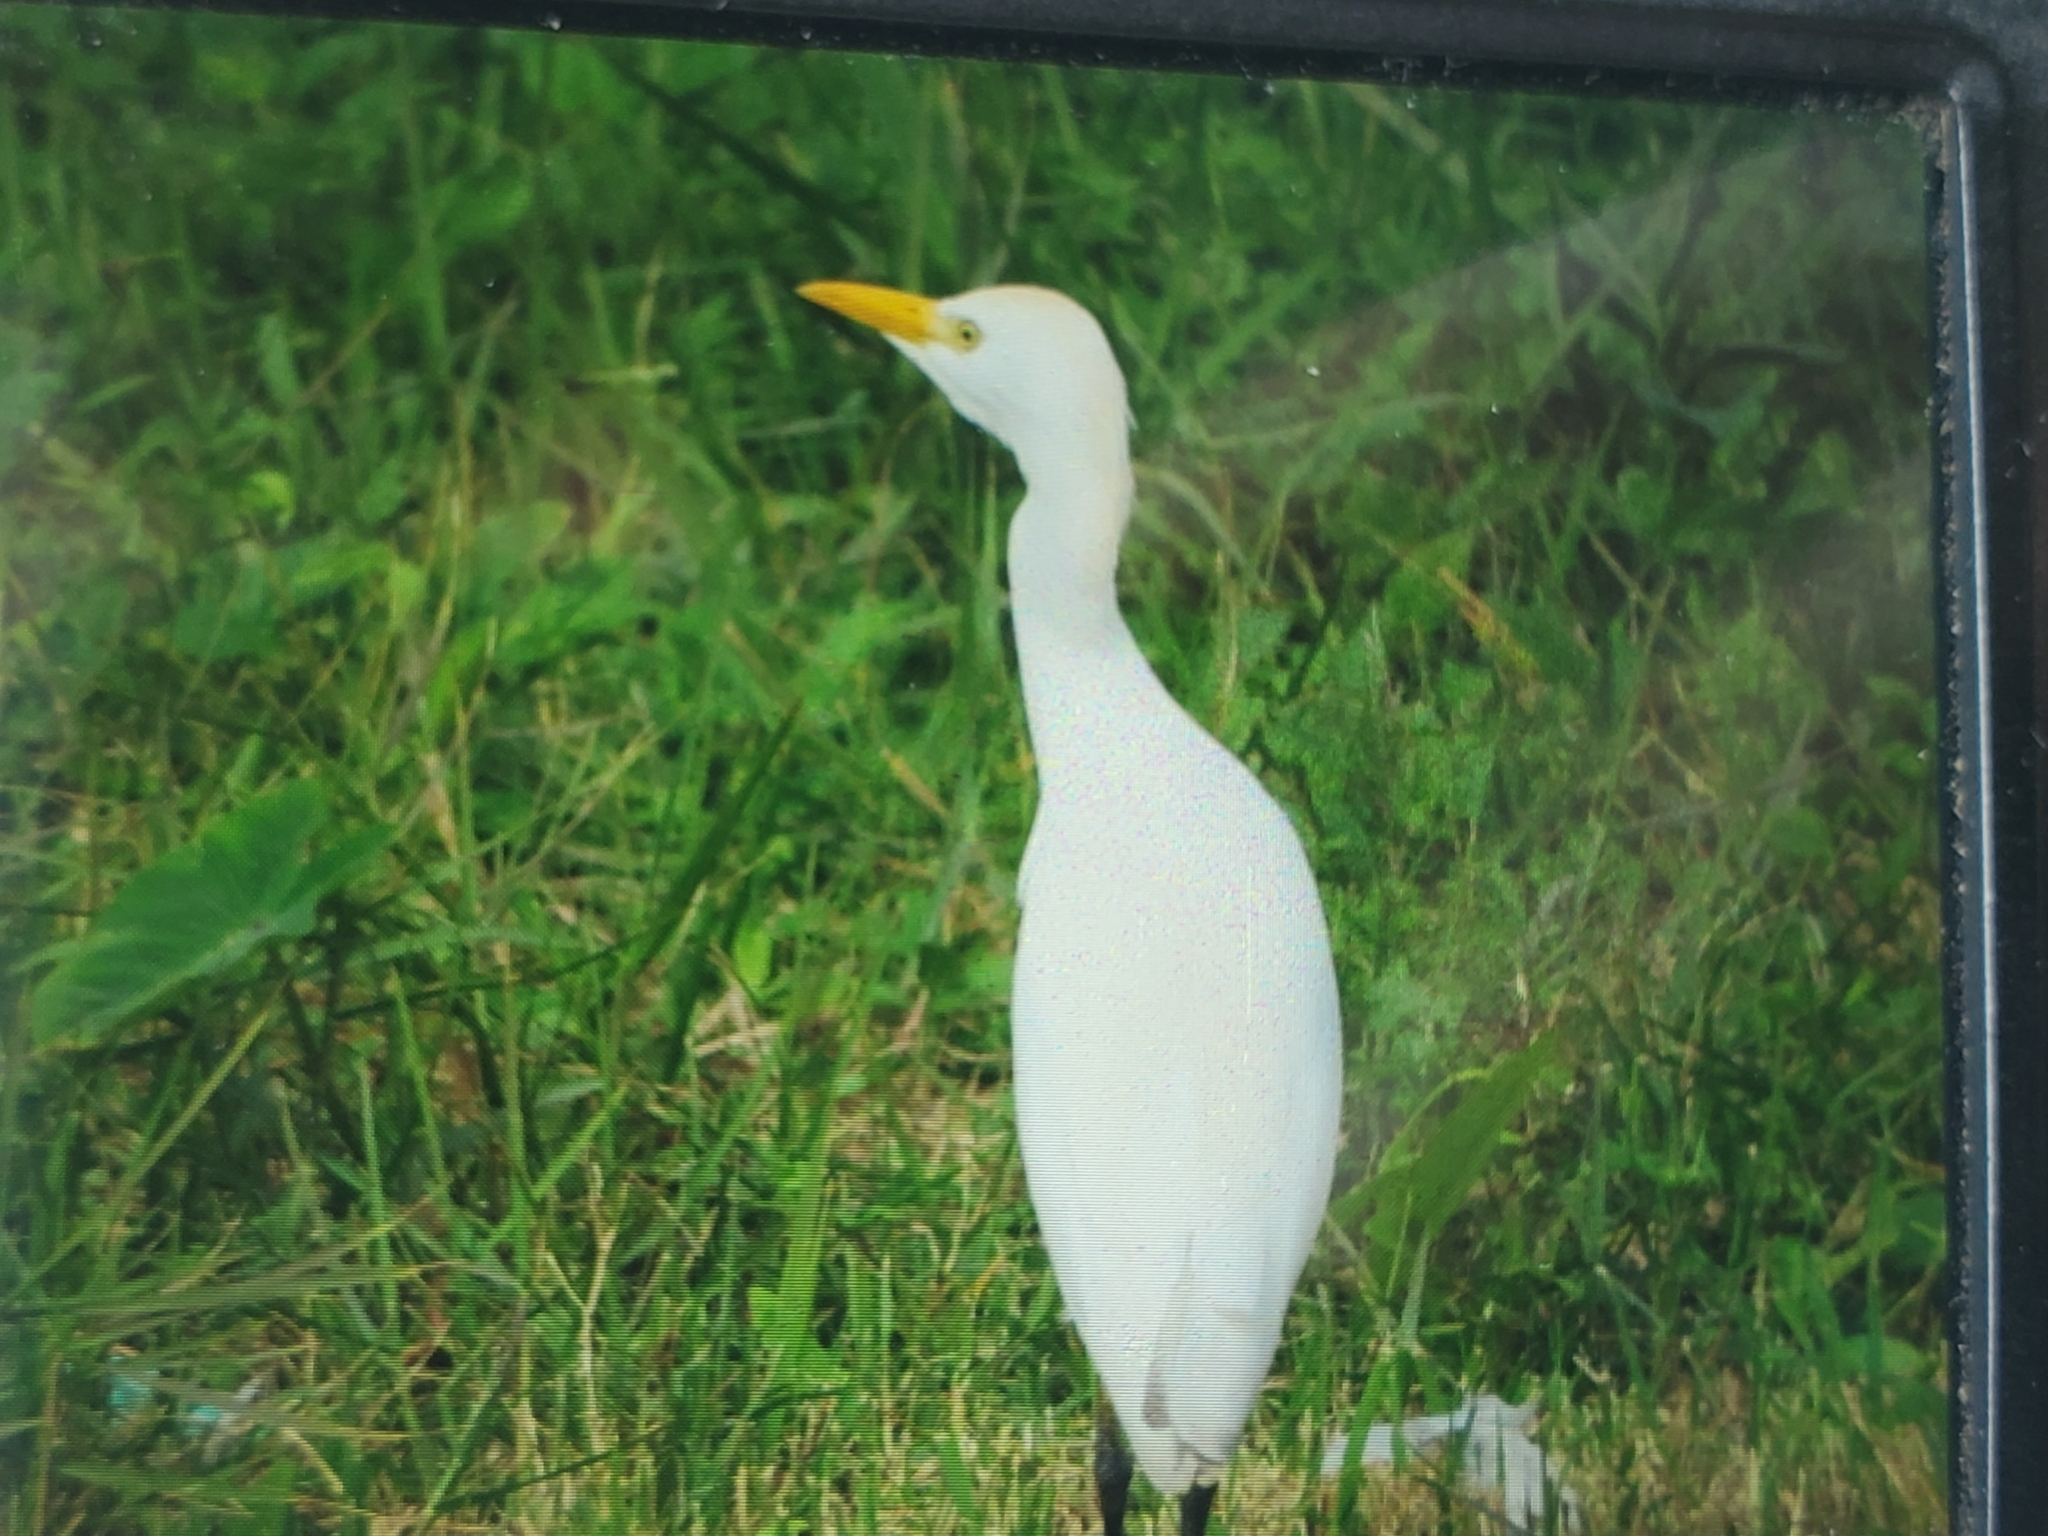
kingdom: Animalia
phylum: Chordata
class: Aves
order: Pelecaniformes
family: Ardeidae
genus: Bubulcus
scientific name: Bubulcus ibis
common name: Cattle egret
